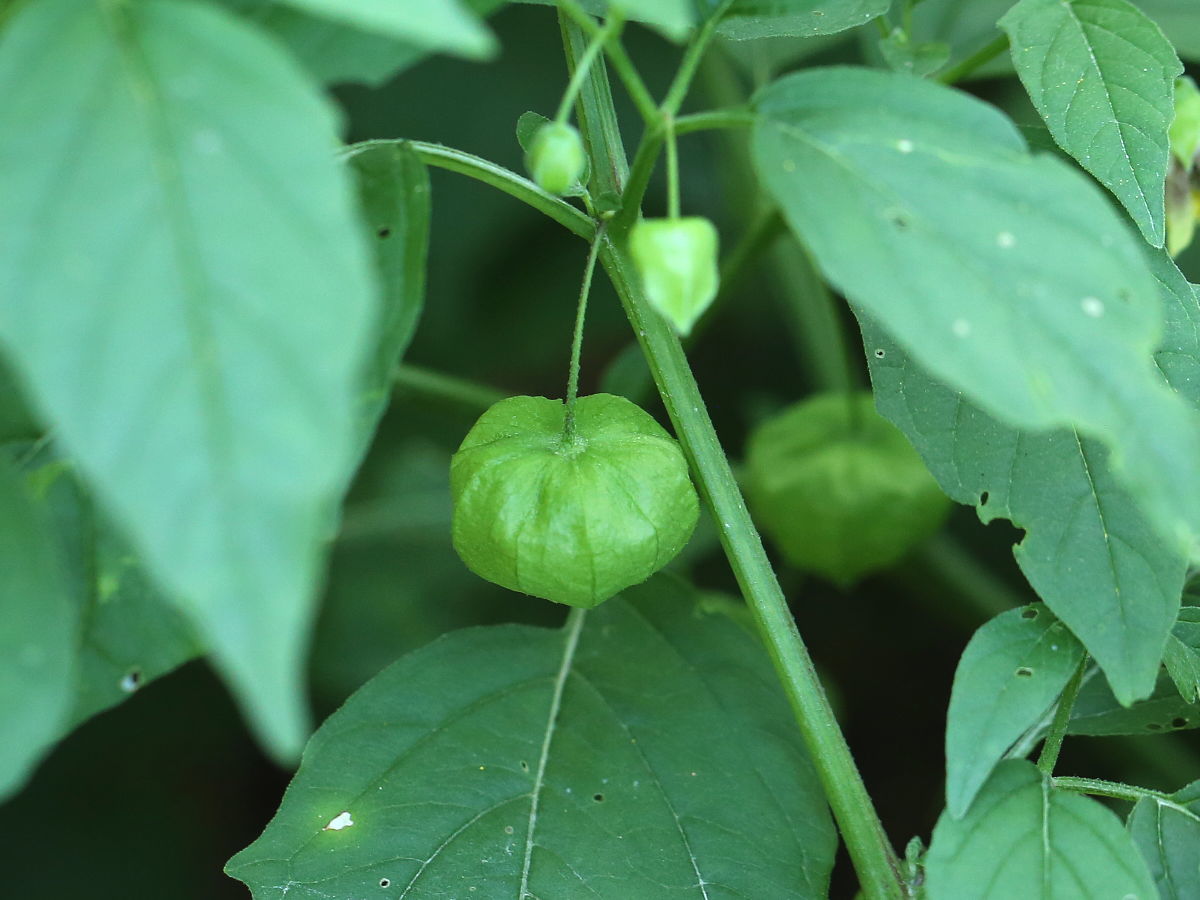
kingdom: Plantae
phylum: Tracheophyta
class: Magnoliopsida
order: Solanales
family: Solanaceae
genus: Physalis
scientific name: Physalis longifolia
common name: Common ground-cherry
